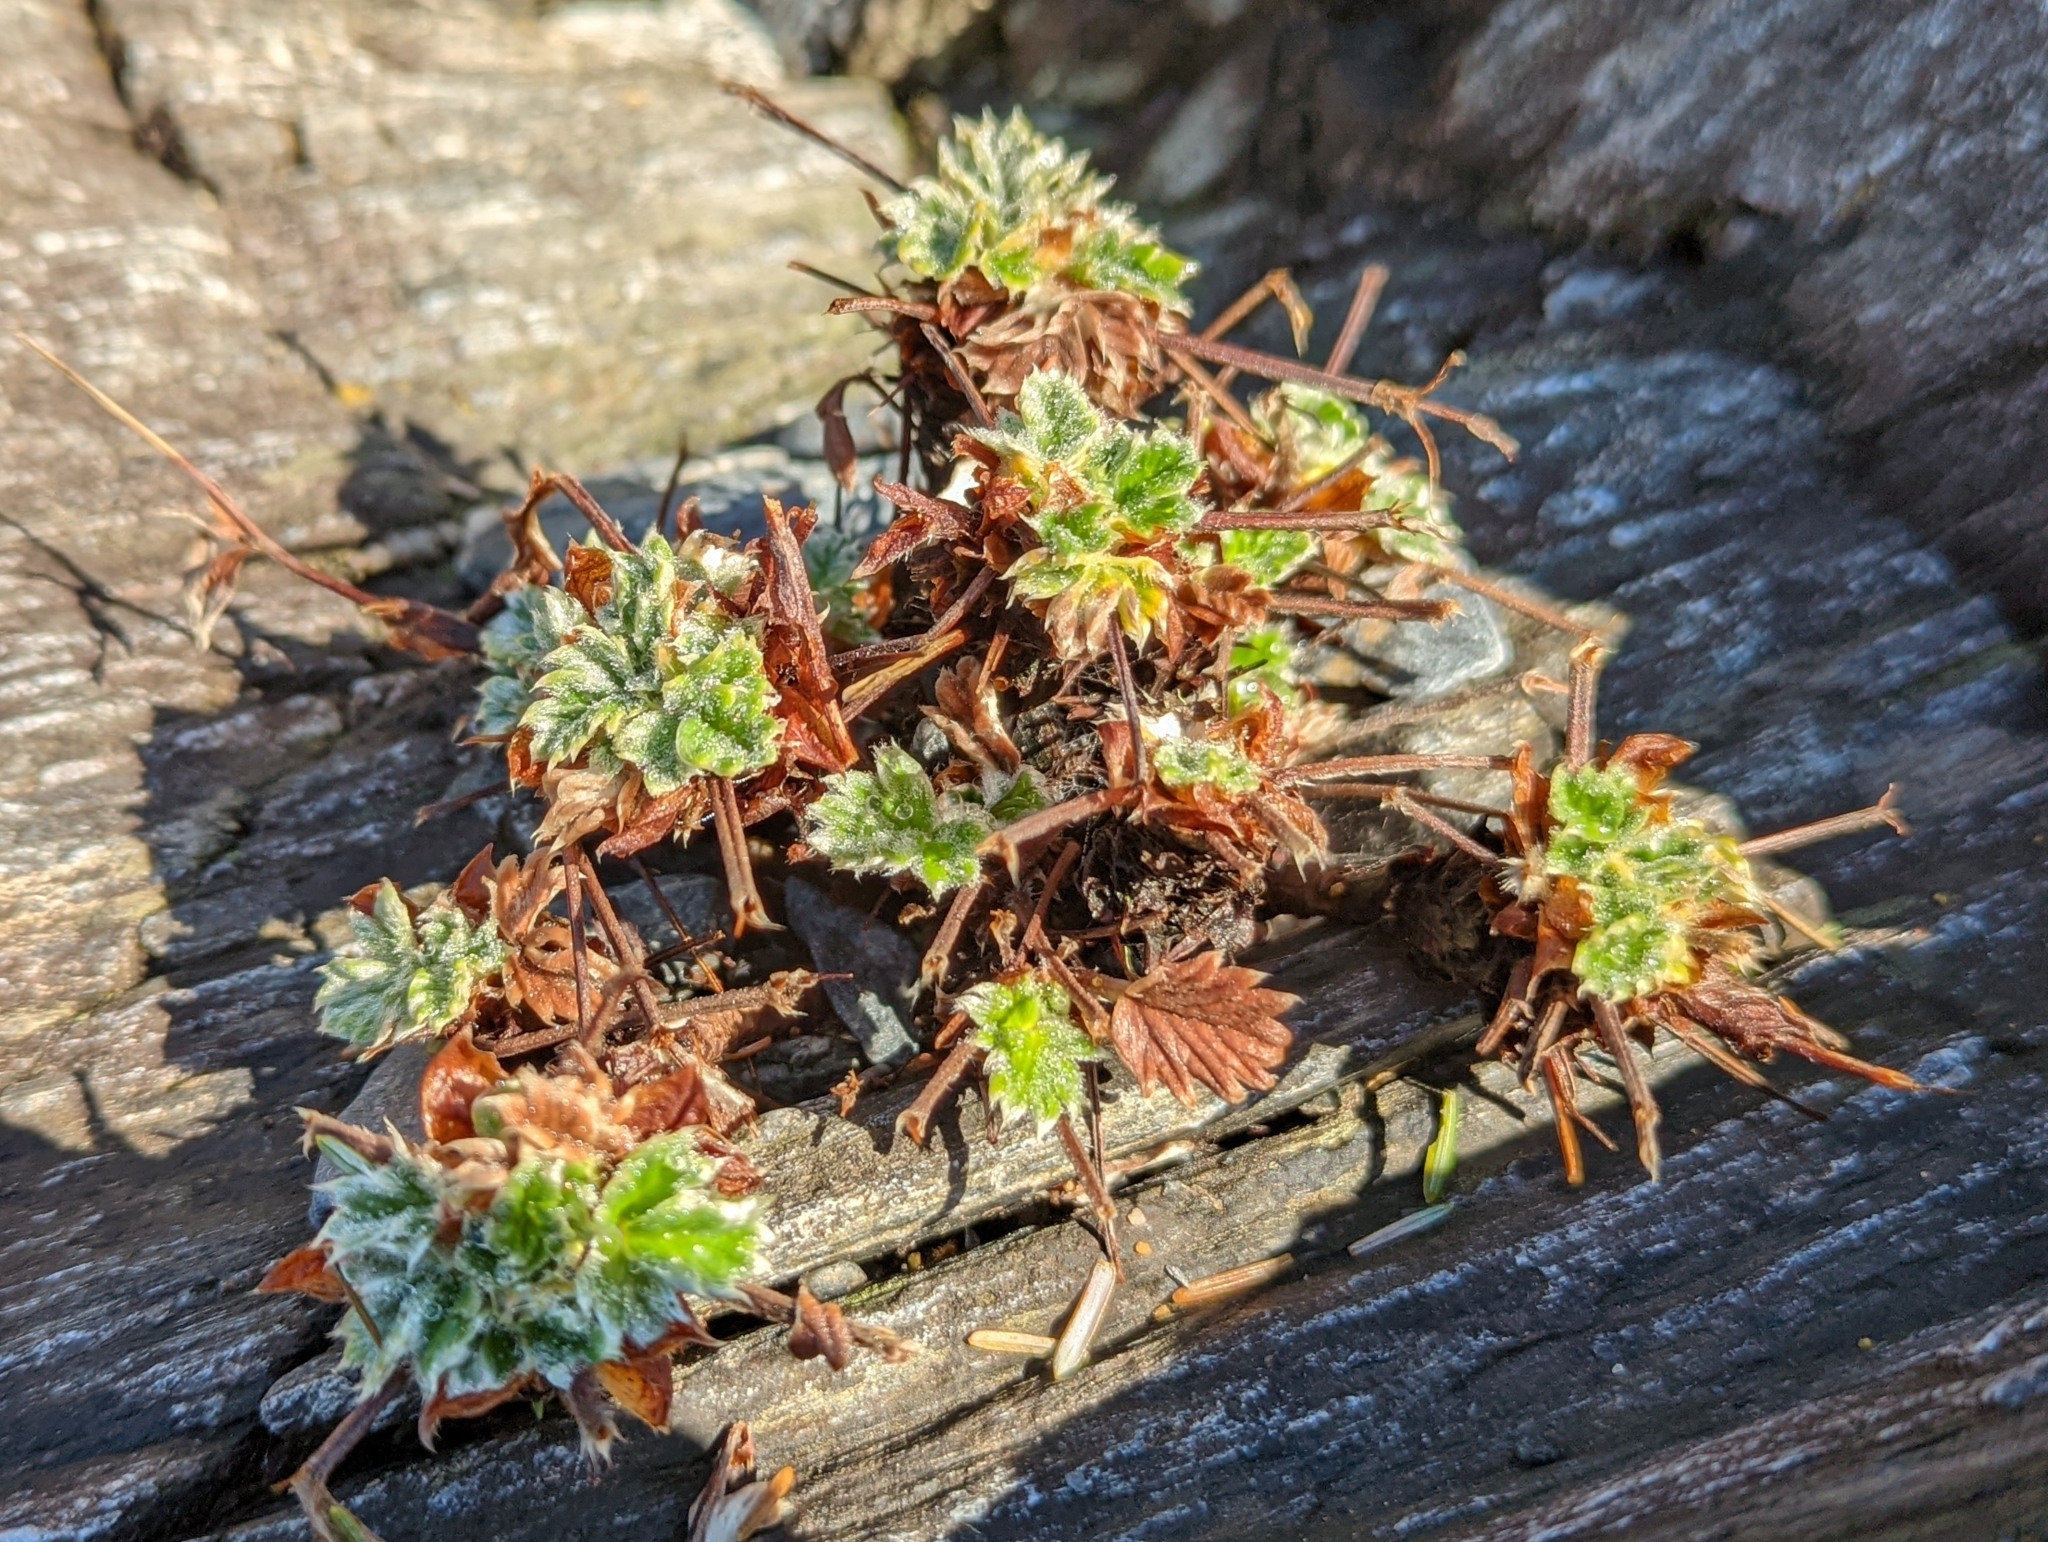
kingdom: Plantae
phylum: Tracheophyta
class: Magnoliopsida
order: Rosales
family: Rosaceae
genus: Potentilla
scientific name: Potentilla villosa
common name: Northern cinquefoil
